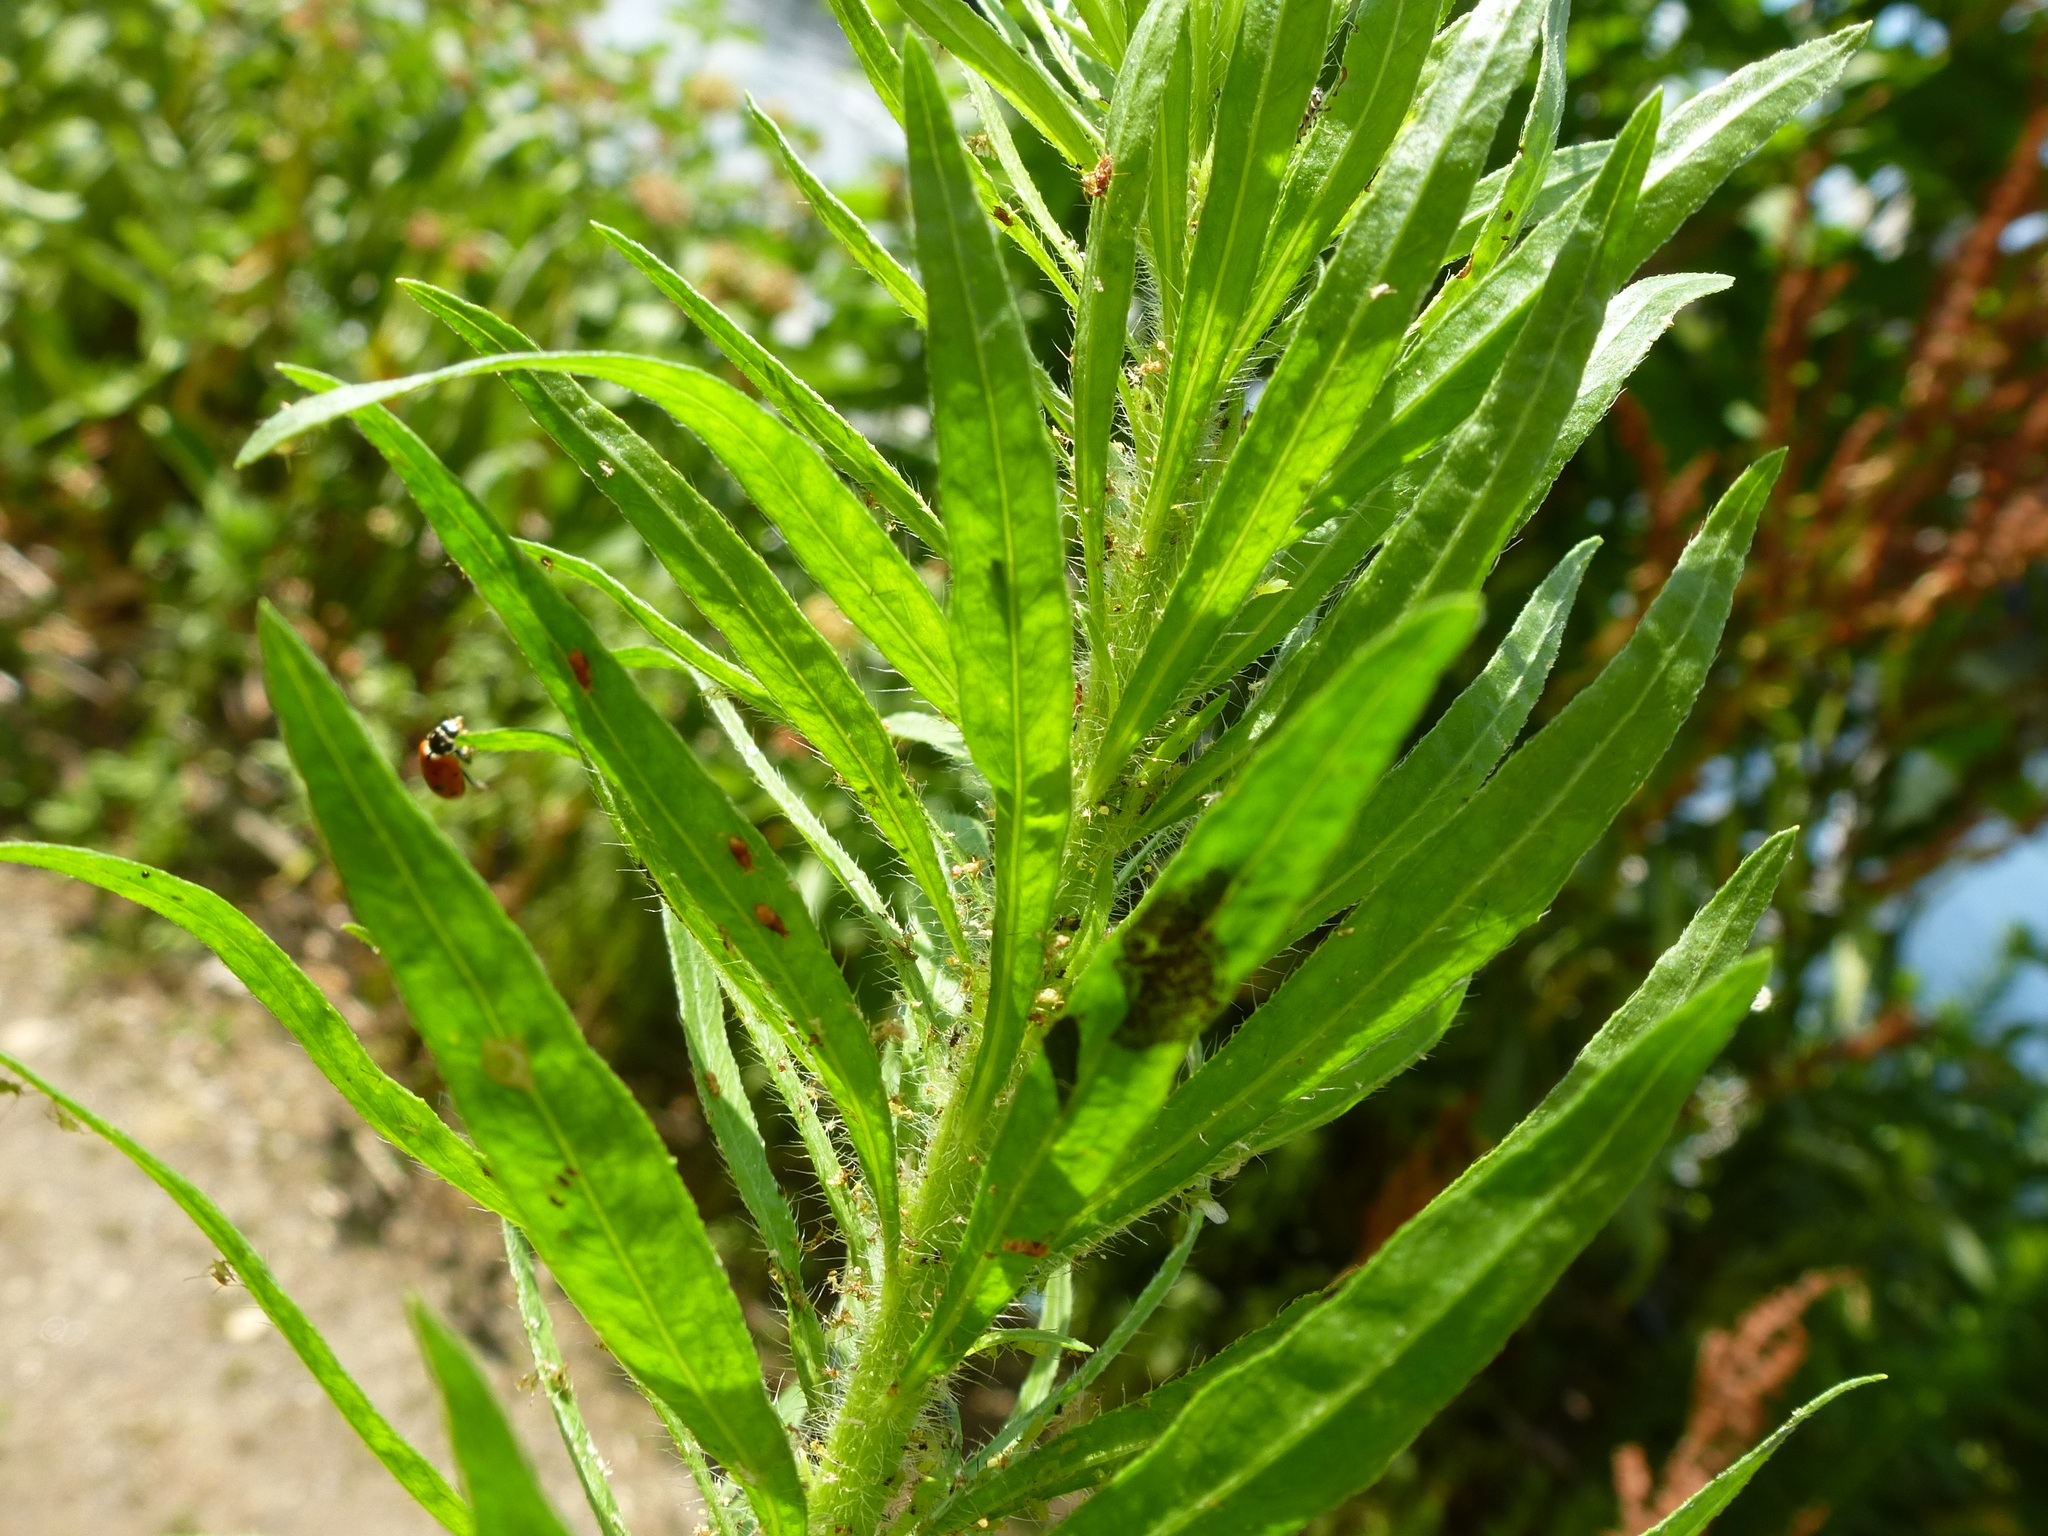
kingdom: Plantae
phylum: Tracheophyta
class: Magnoliopsida
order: Asterales
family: Asteraceae
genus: Erigeron
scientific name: Erigeron canadensis
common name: Canadian fleabane
